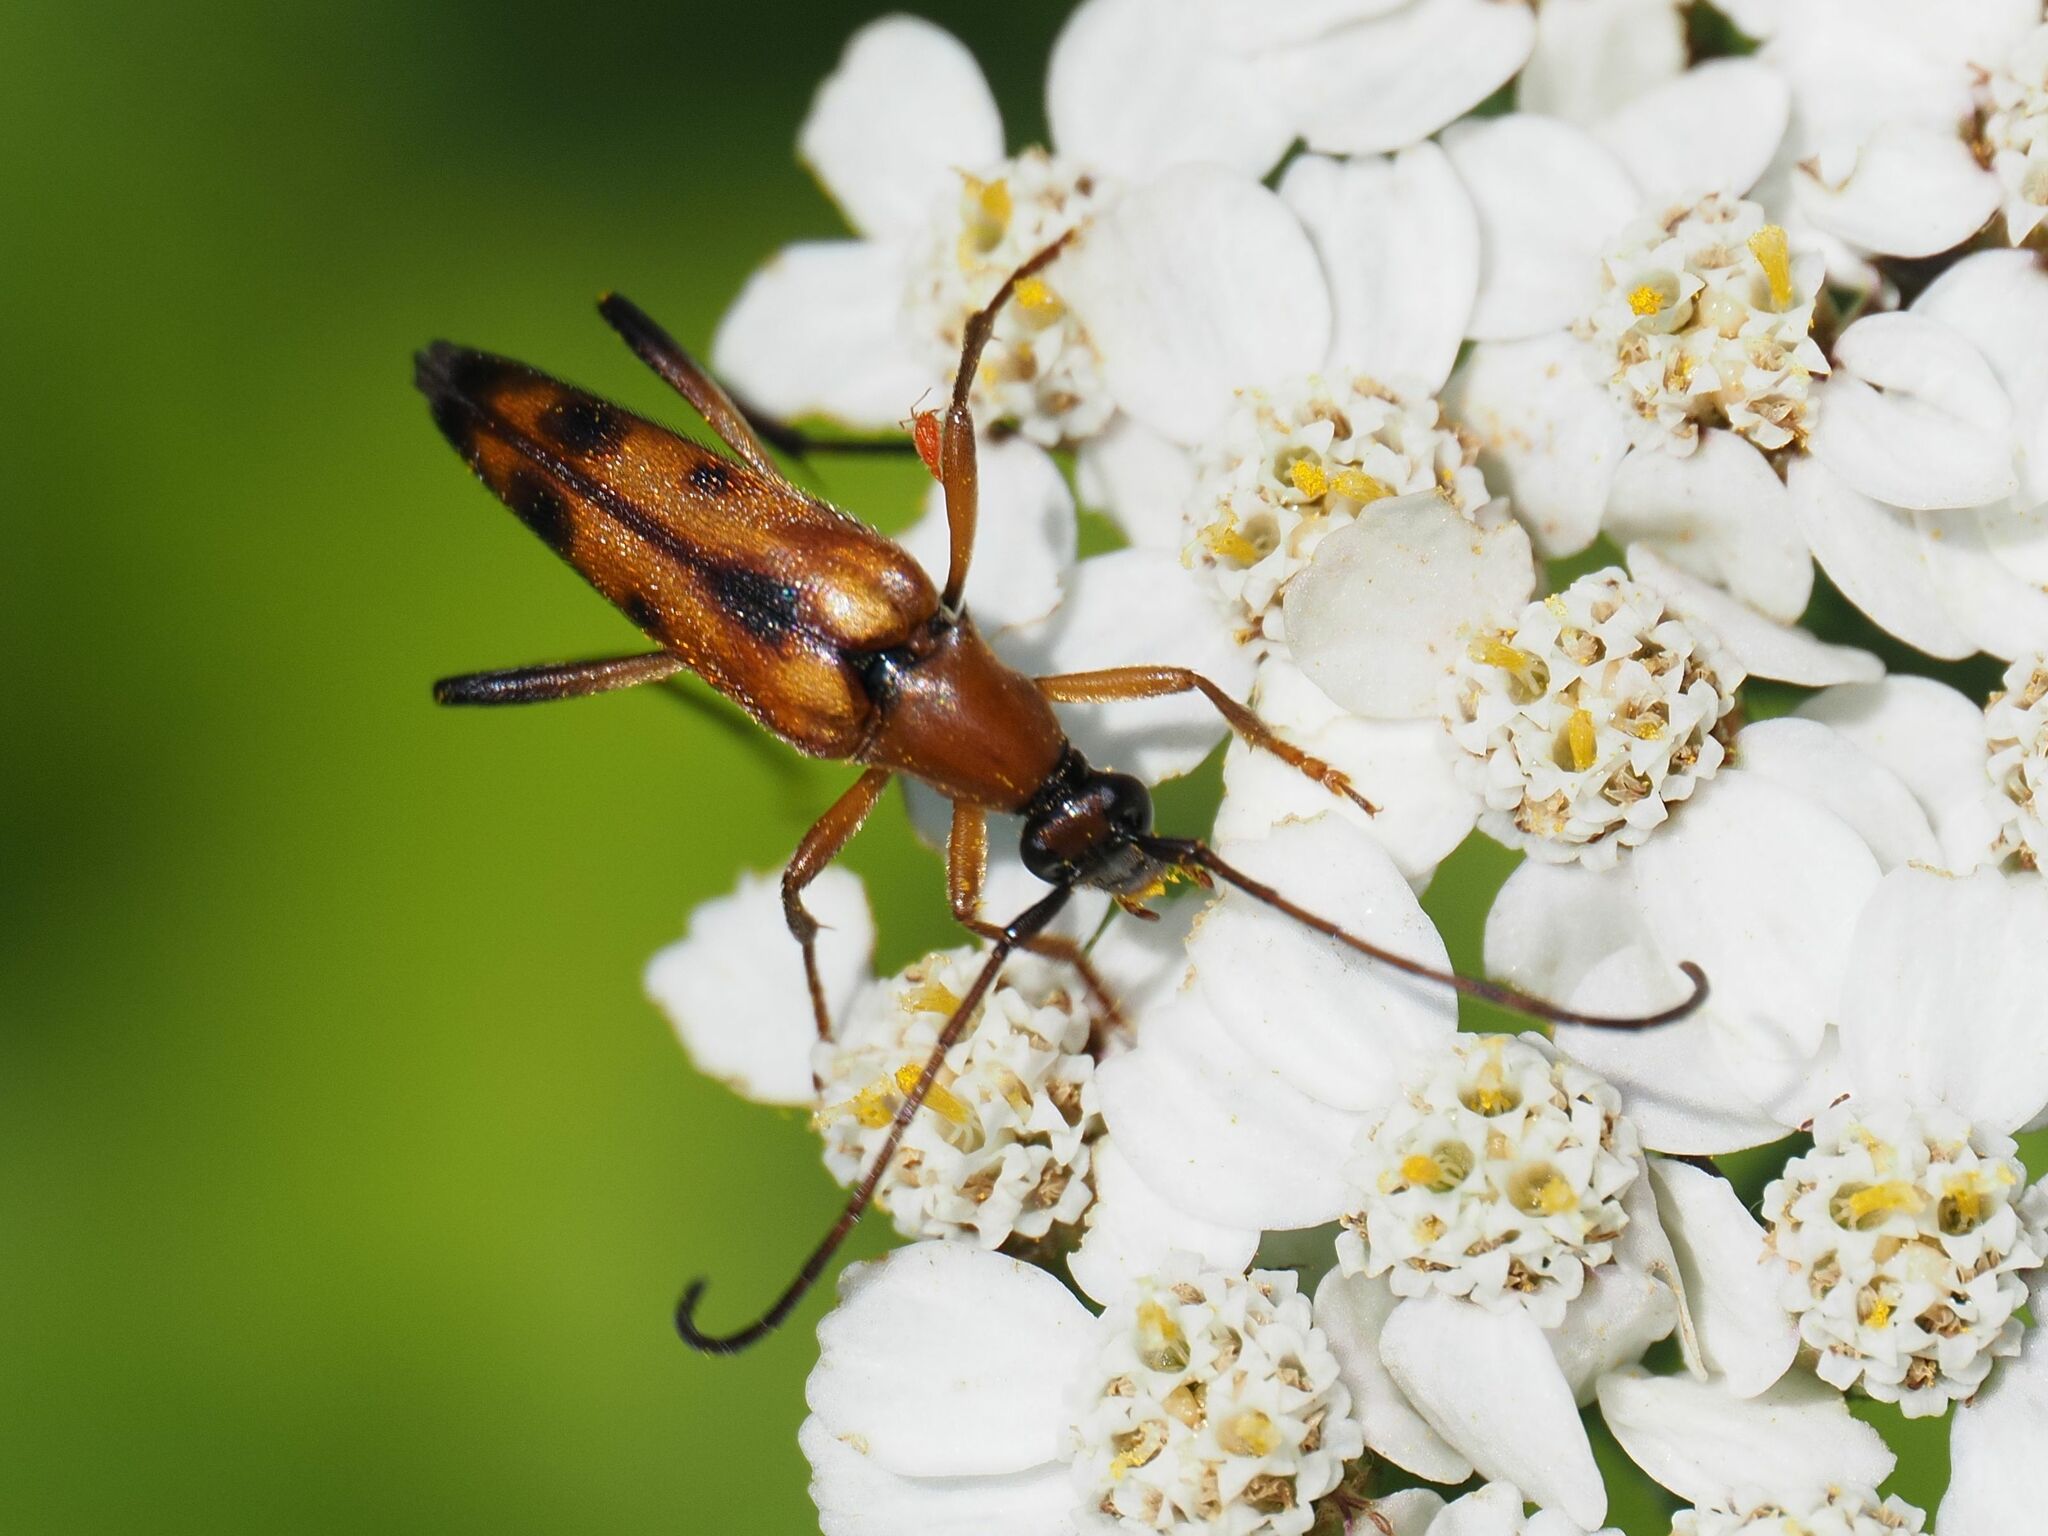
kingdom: Animalia
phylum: Arthropoda
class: Insecta
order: Coleoptera
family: Cerambycidae
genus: Stenurella
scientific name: Stenurella septempunctata
